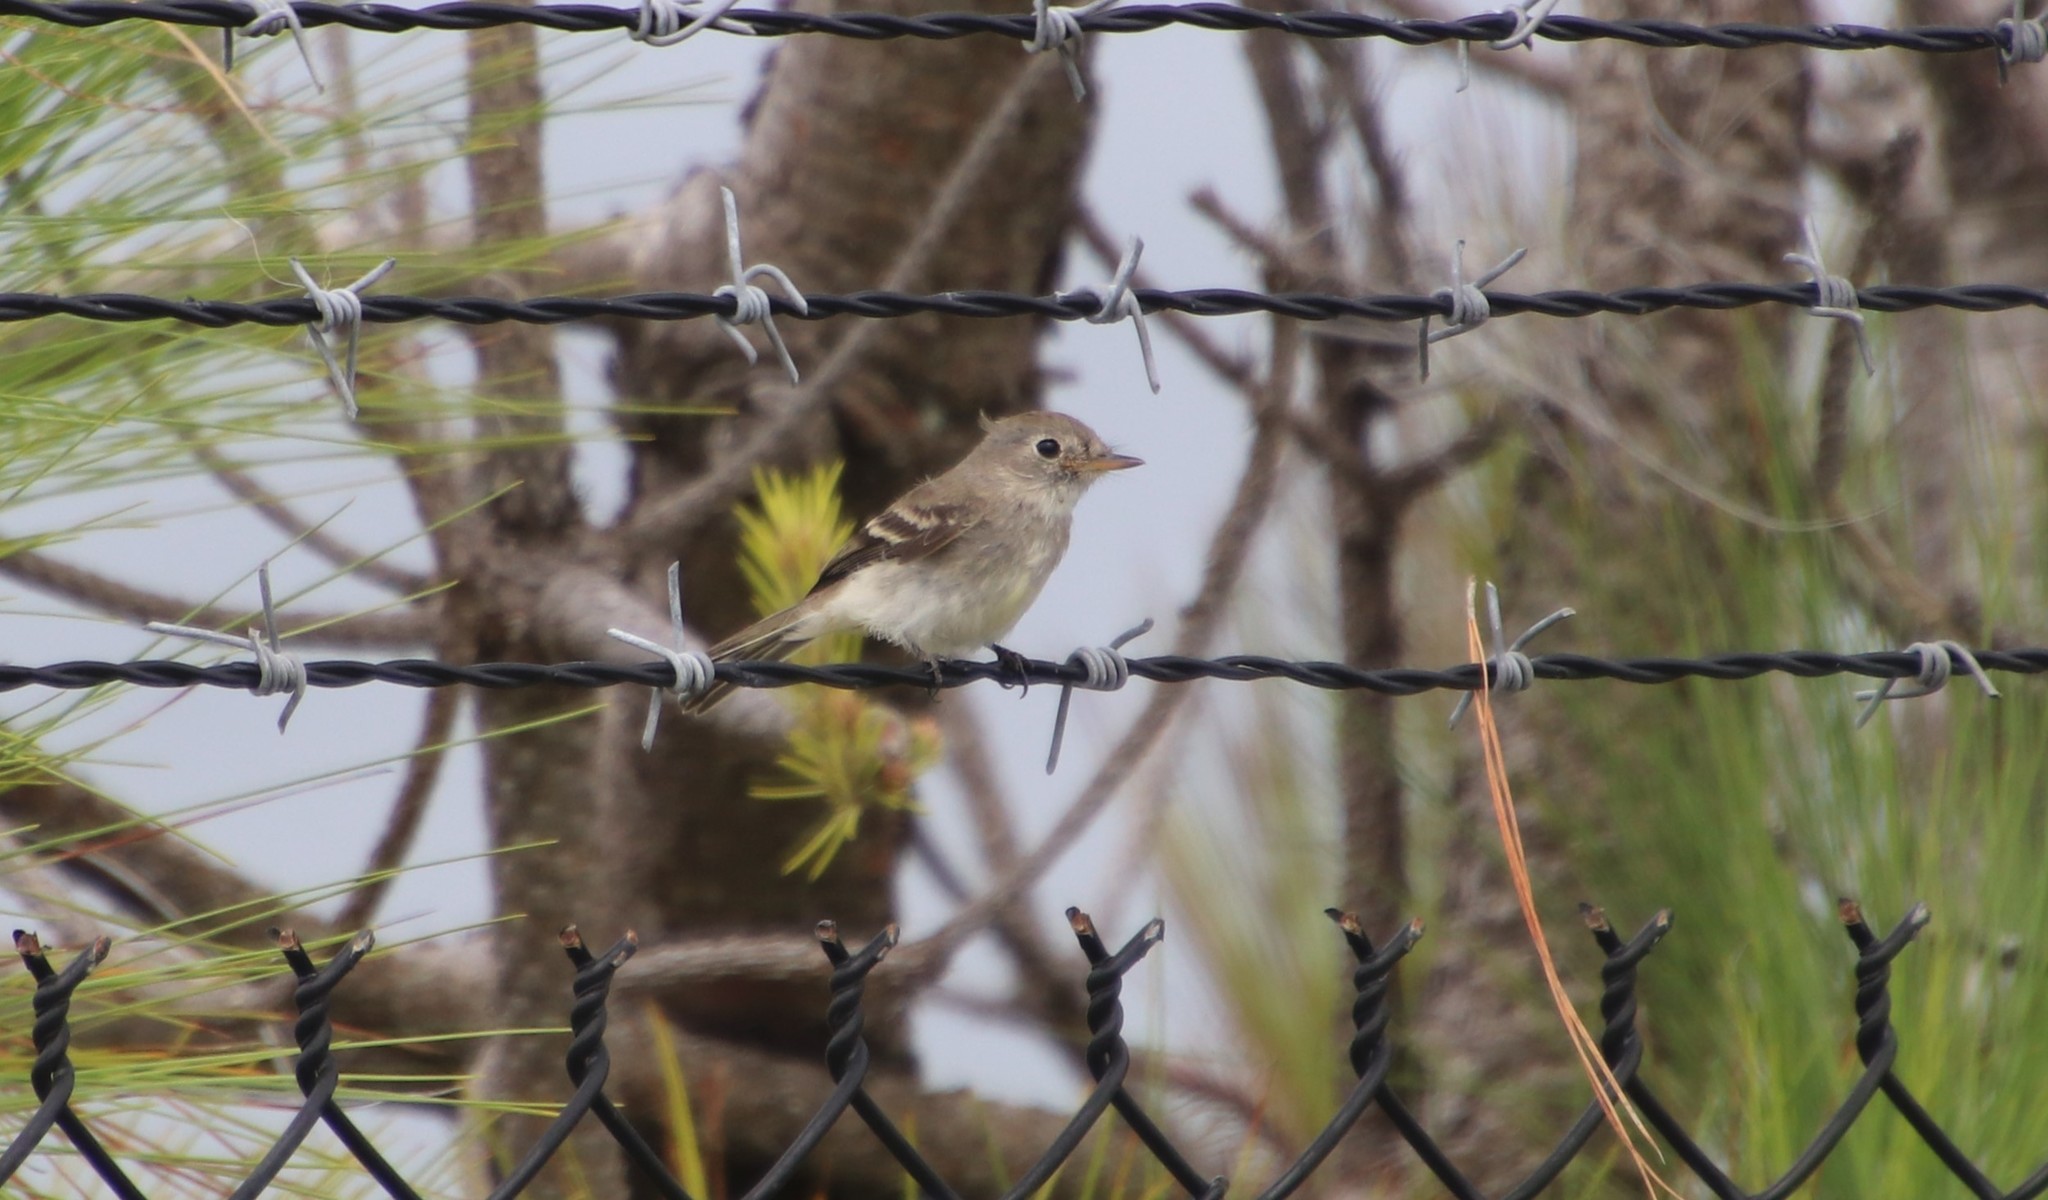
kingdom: Animalia
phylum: Chordata
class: Aves
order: Passeriformes
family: Tyrannidae
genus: Empidonax
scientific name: Empidonax wrightii
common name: Gray flycatcher
